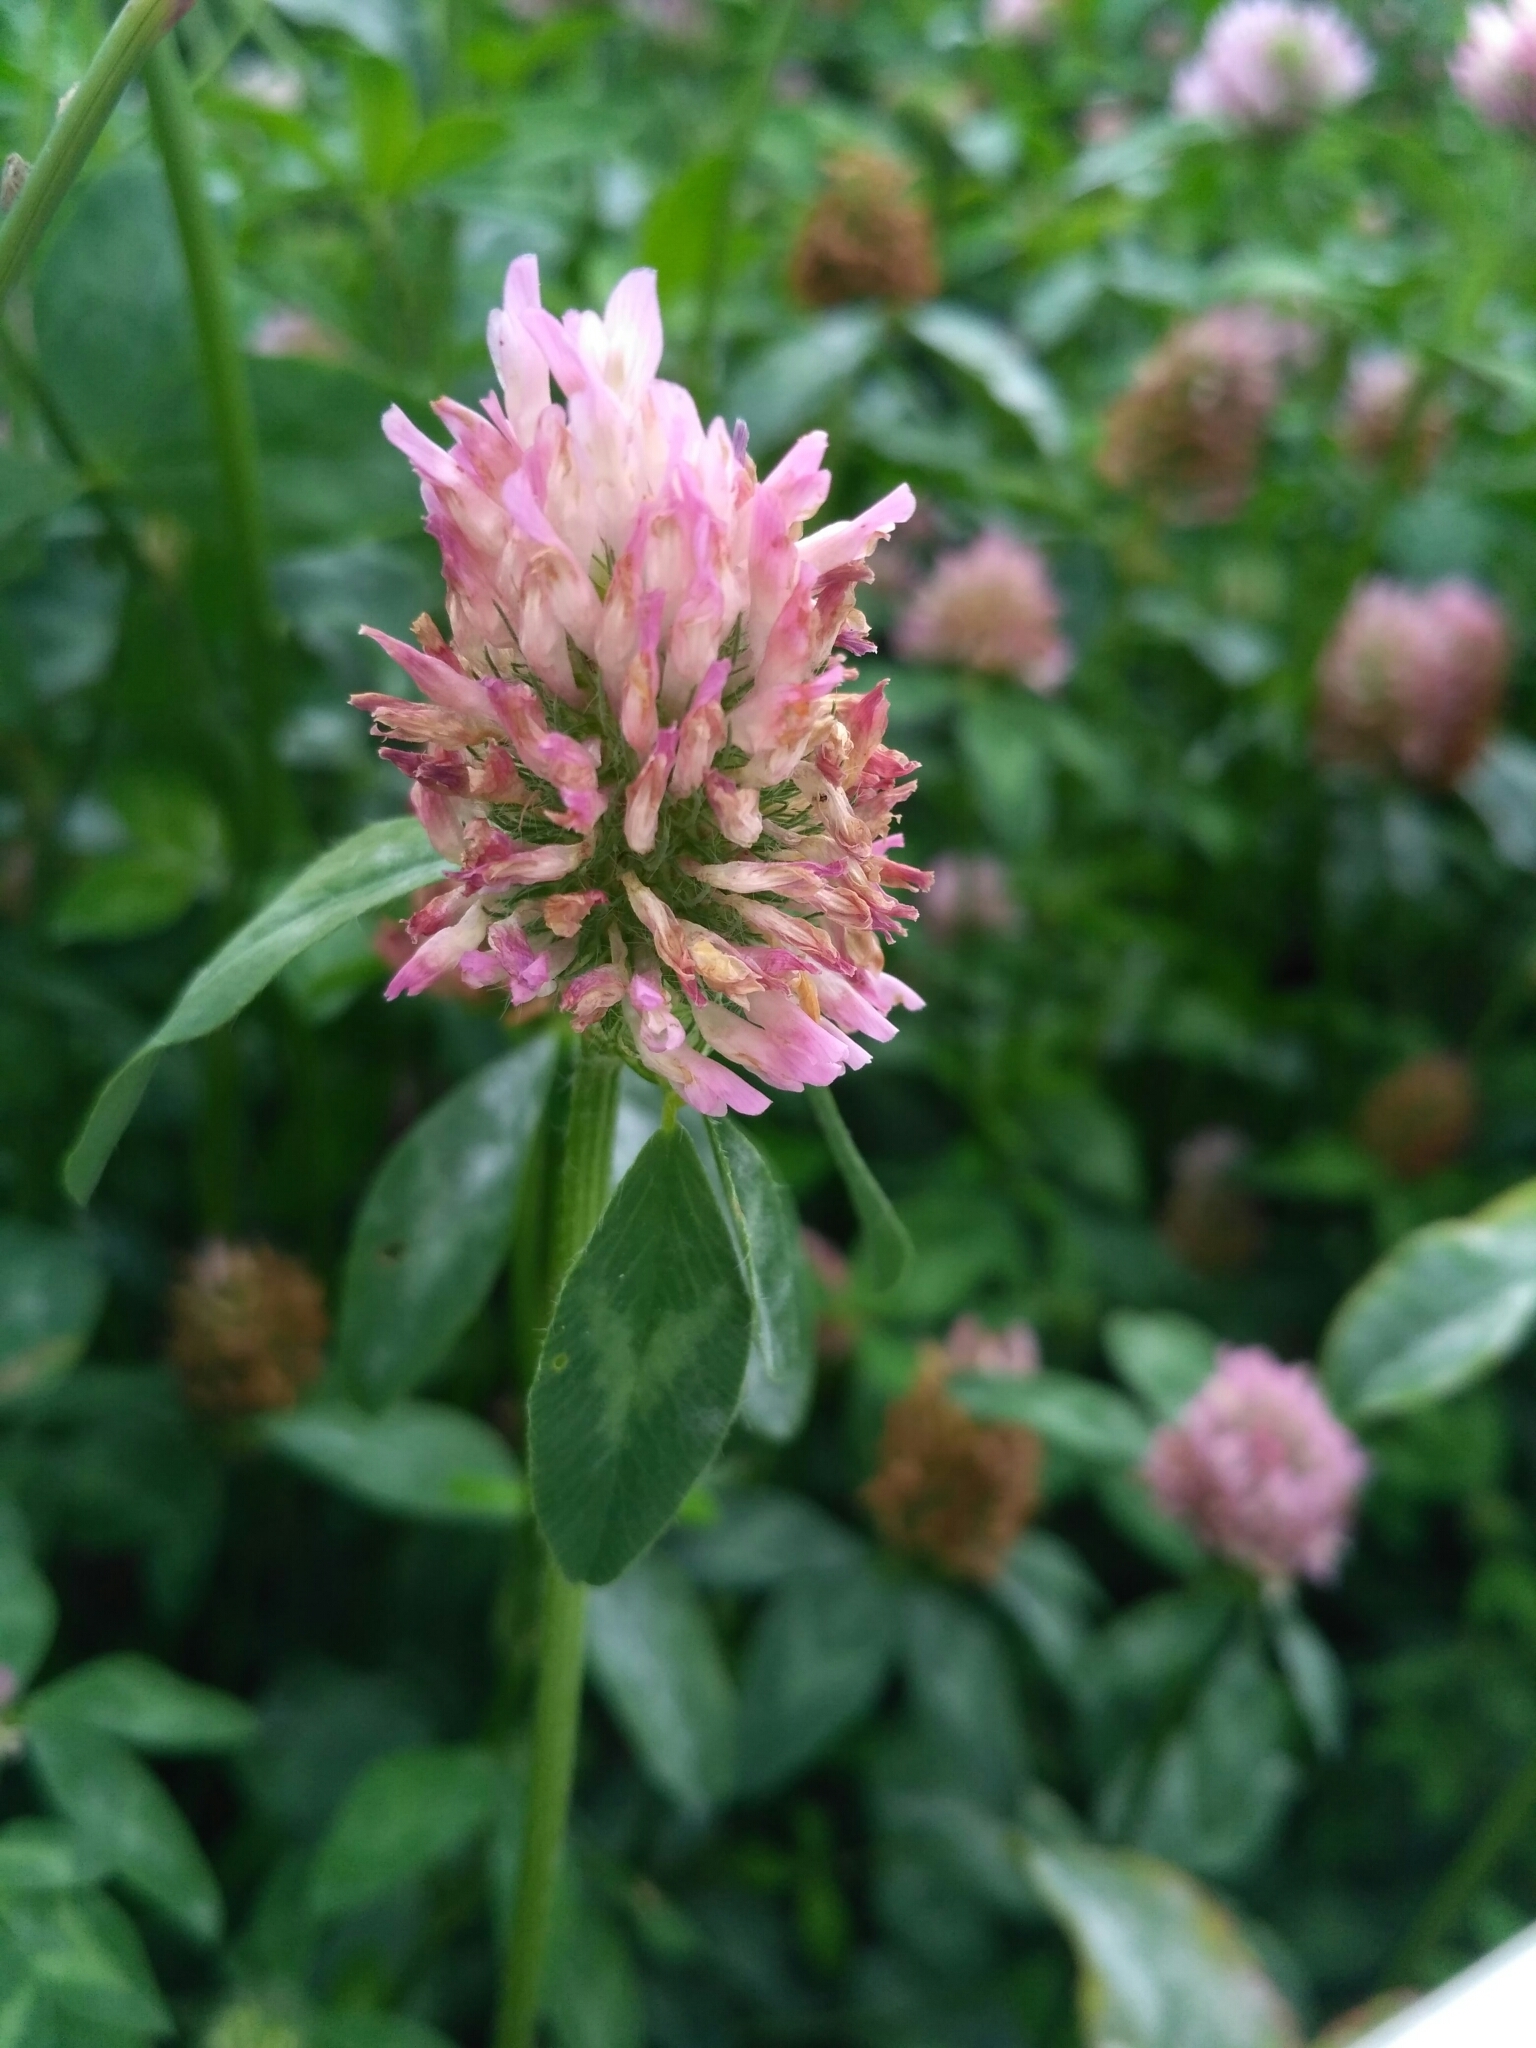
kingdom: Plantae
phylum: Tracheophyta
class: Magnoliopsida
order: Fabales
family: Fabaceae
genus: Trifolium
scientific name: Trifolium pratense
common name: Red clover
